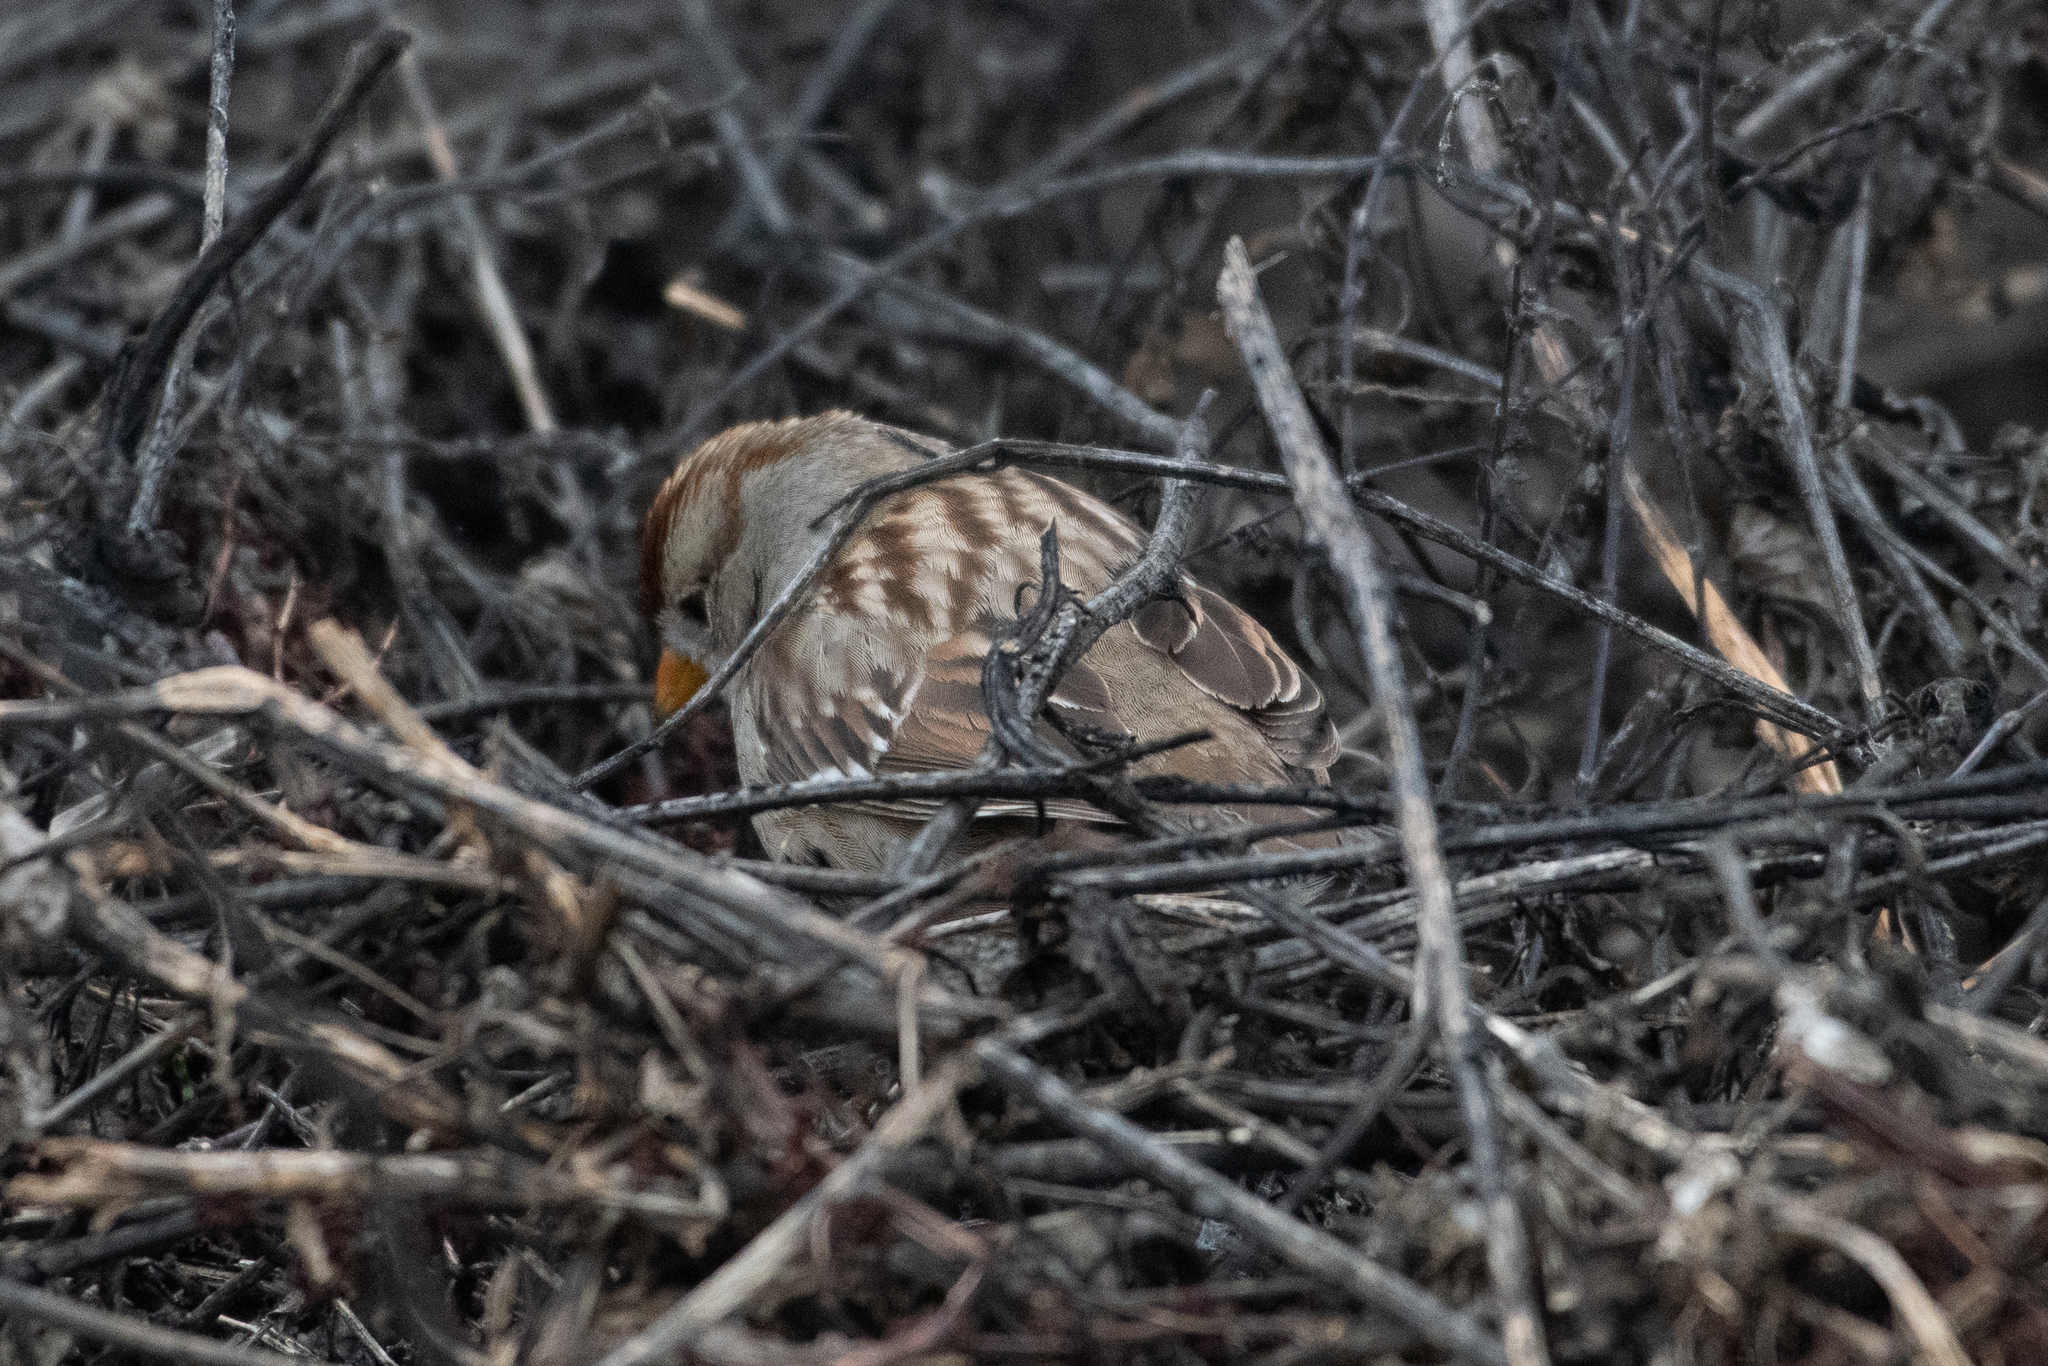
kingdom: Animalia
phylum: Chordata
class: Aves
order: Passeriformes
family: Passerellidae
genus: Zonotrichia
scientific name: Zonotrichia leucophrys
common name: White-crowned sparrow
